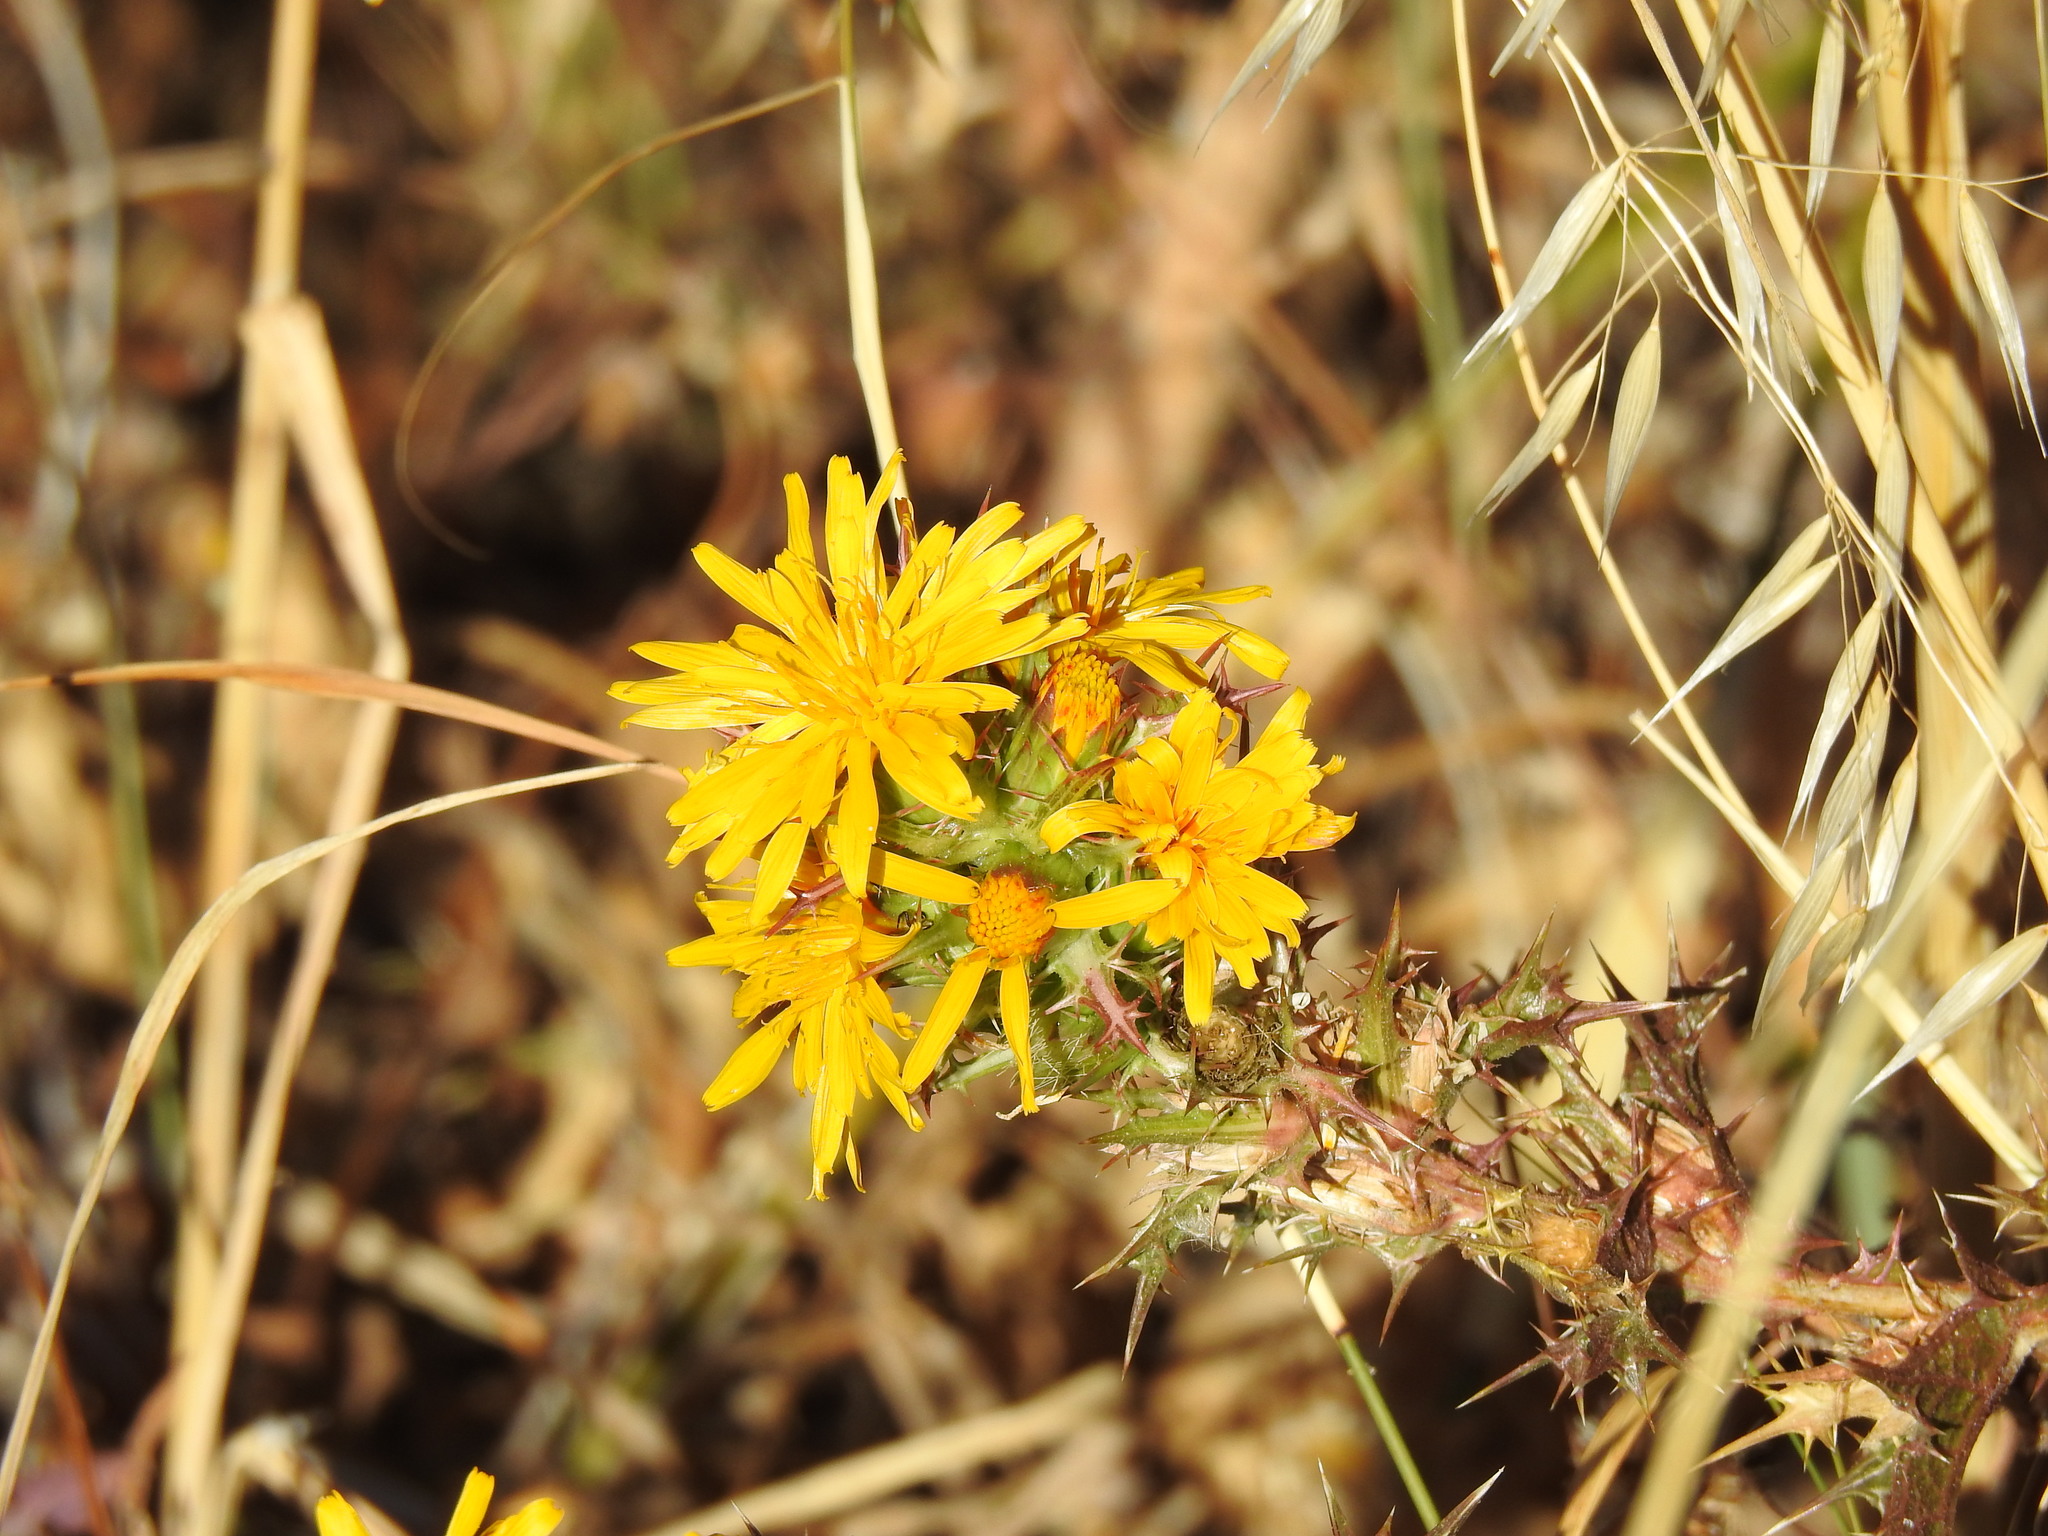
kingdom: Plantae
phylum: Tracheophyta
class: Magnoliopsida
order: Asterales
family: Asteraceae
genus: Scolymus
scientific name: Scolymus hispanicus
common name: Golden thistle
